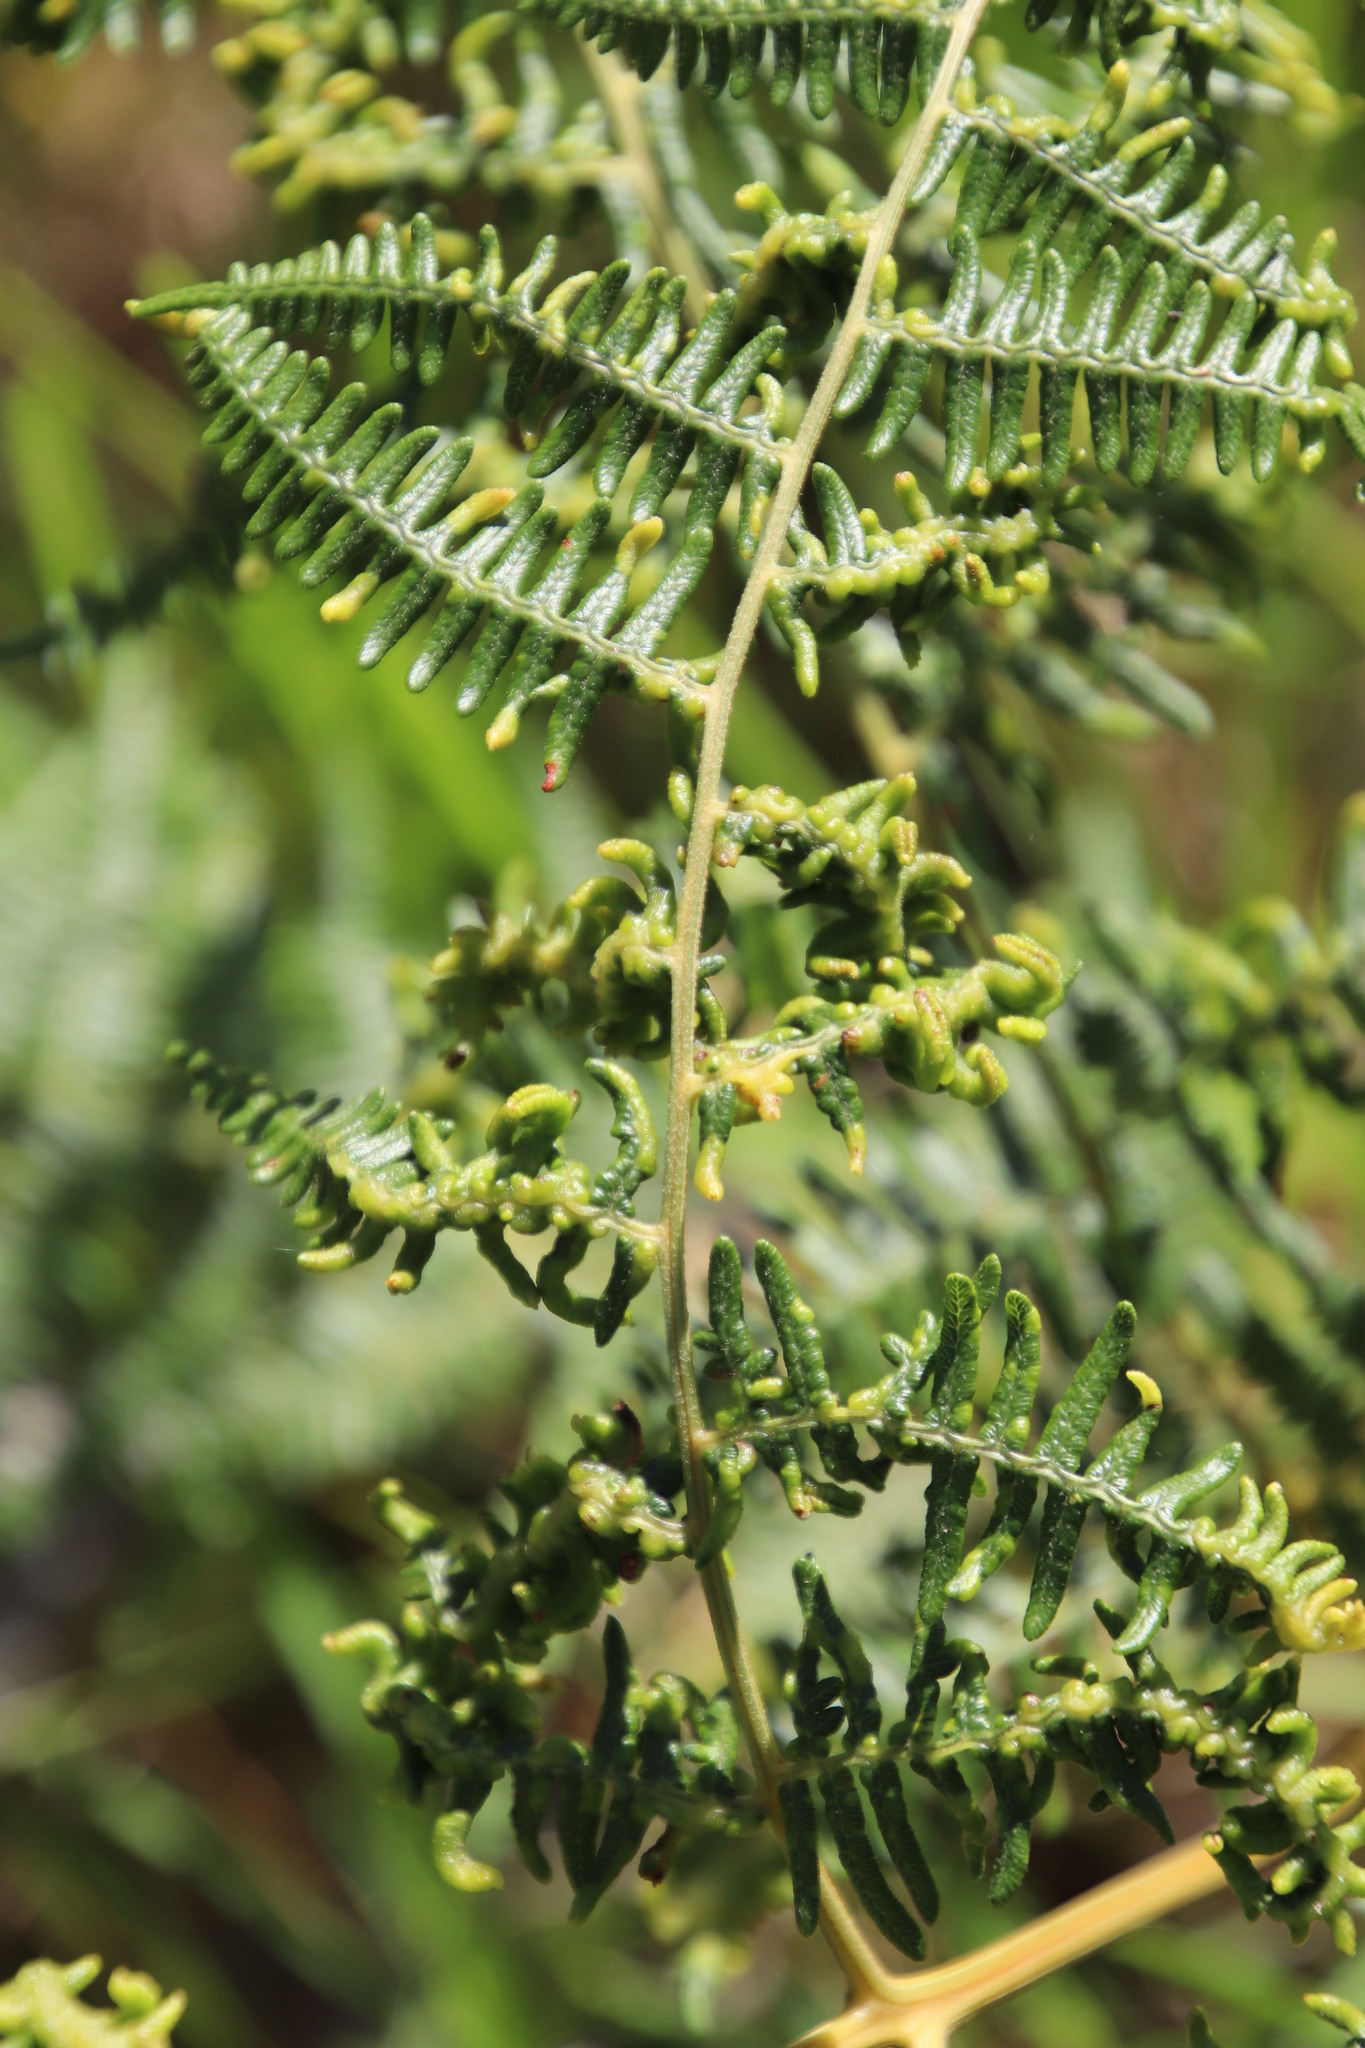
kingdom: Plantae
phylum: Tracheophyta
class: Polypodiopsida
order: Polypodiales
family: Dennstaedtiaceae
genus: Pteridium
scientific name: Pteridium aquilinum
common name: Bracken
